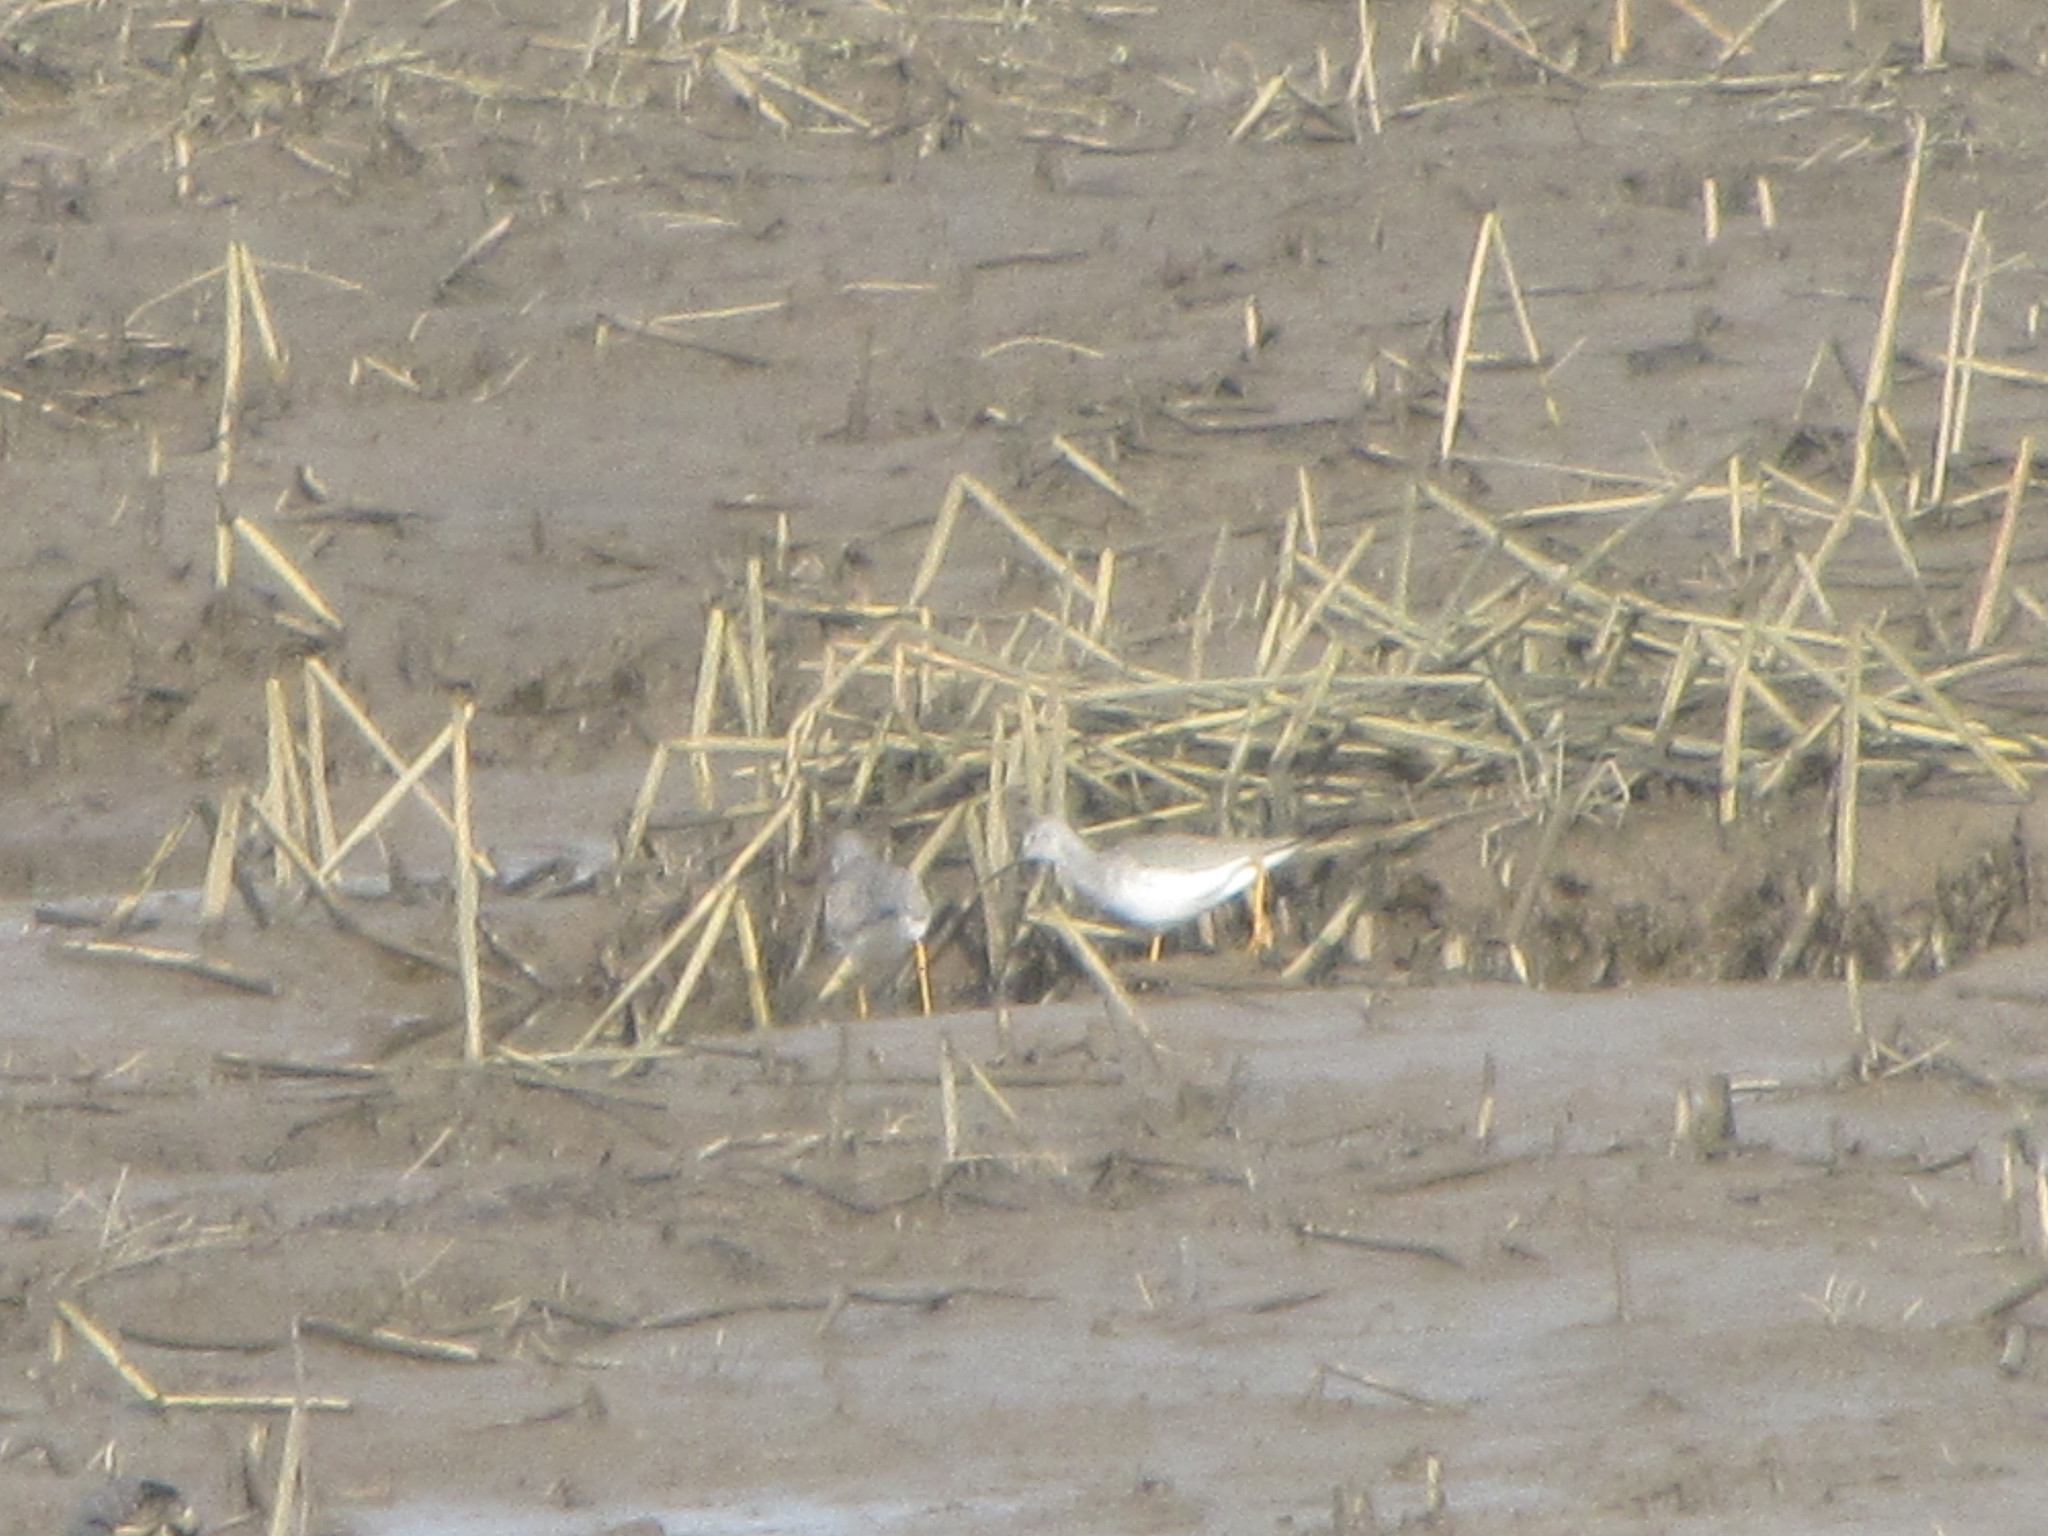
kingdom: Animalia
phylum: Chordata
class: Aves
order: Charadriiformes
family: Scolopacidae
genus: Tringa
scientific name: Tringa melanoleuca
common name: Greater yellowlegs
